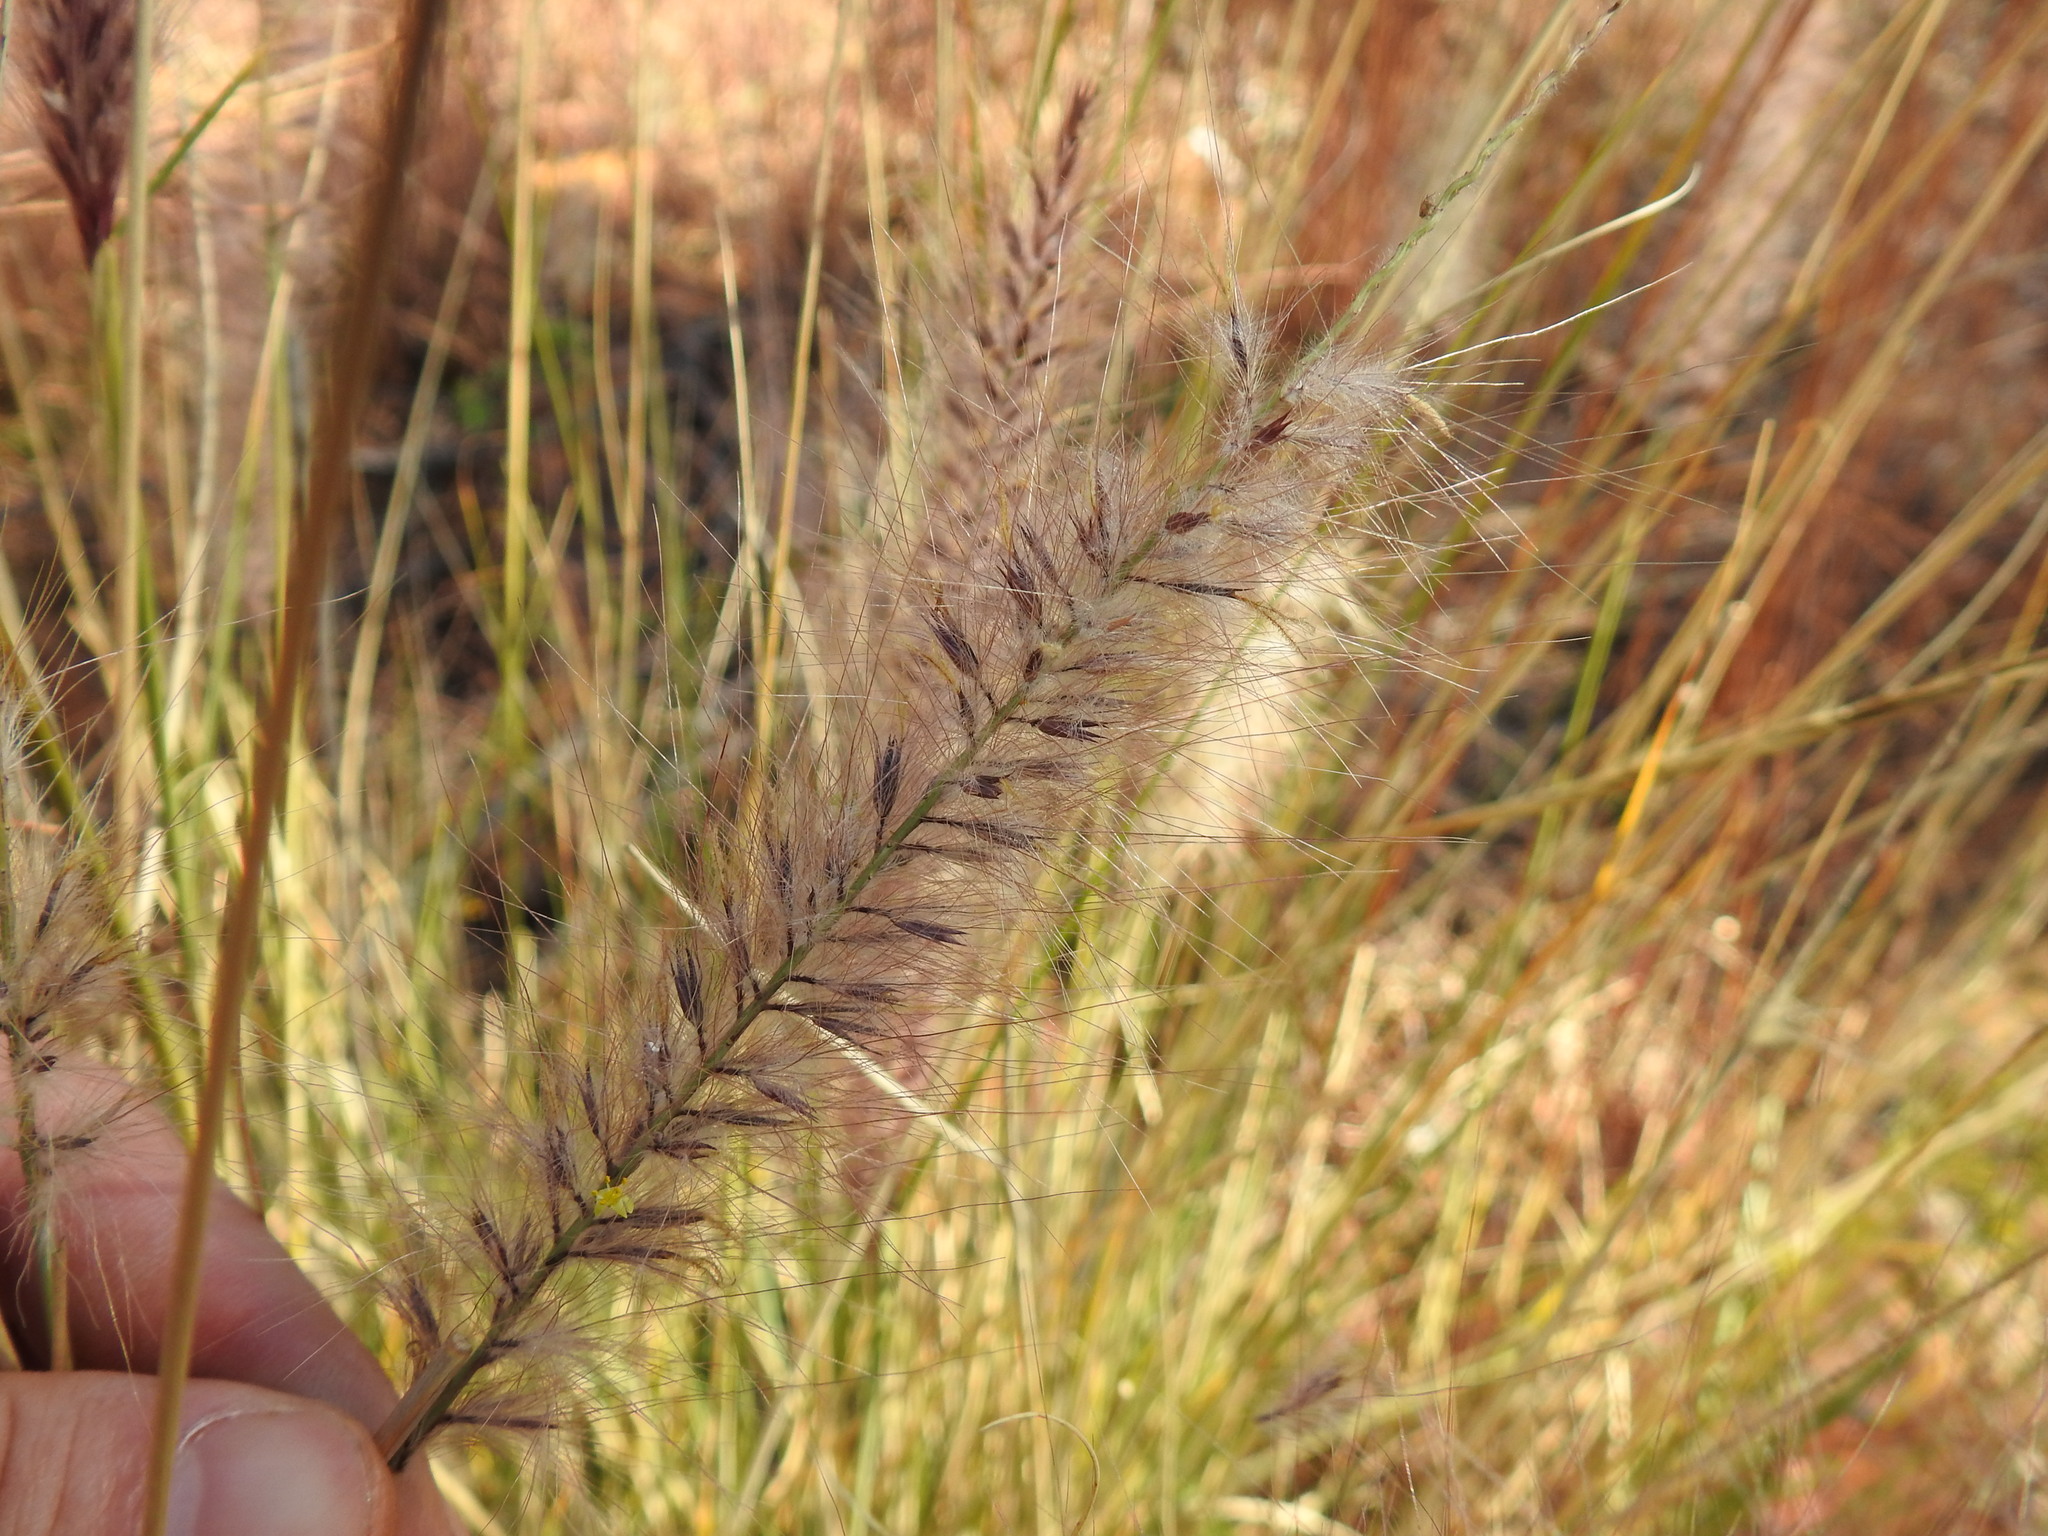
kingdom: Plantae
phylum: Tracheophyta
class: Liliopsida
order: Poales
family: Poaceae
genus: Cenchrus
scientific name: Cenchrus setaceus
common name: Crimson fountaingrass
